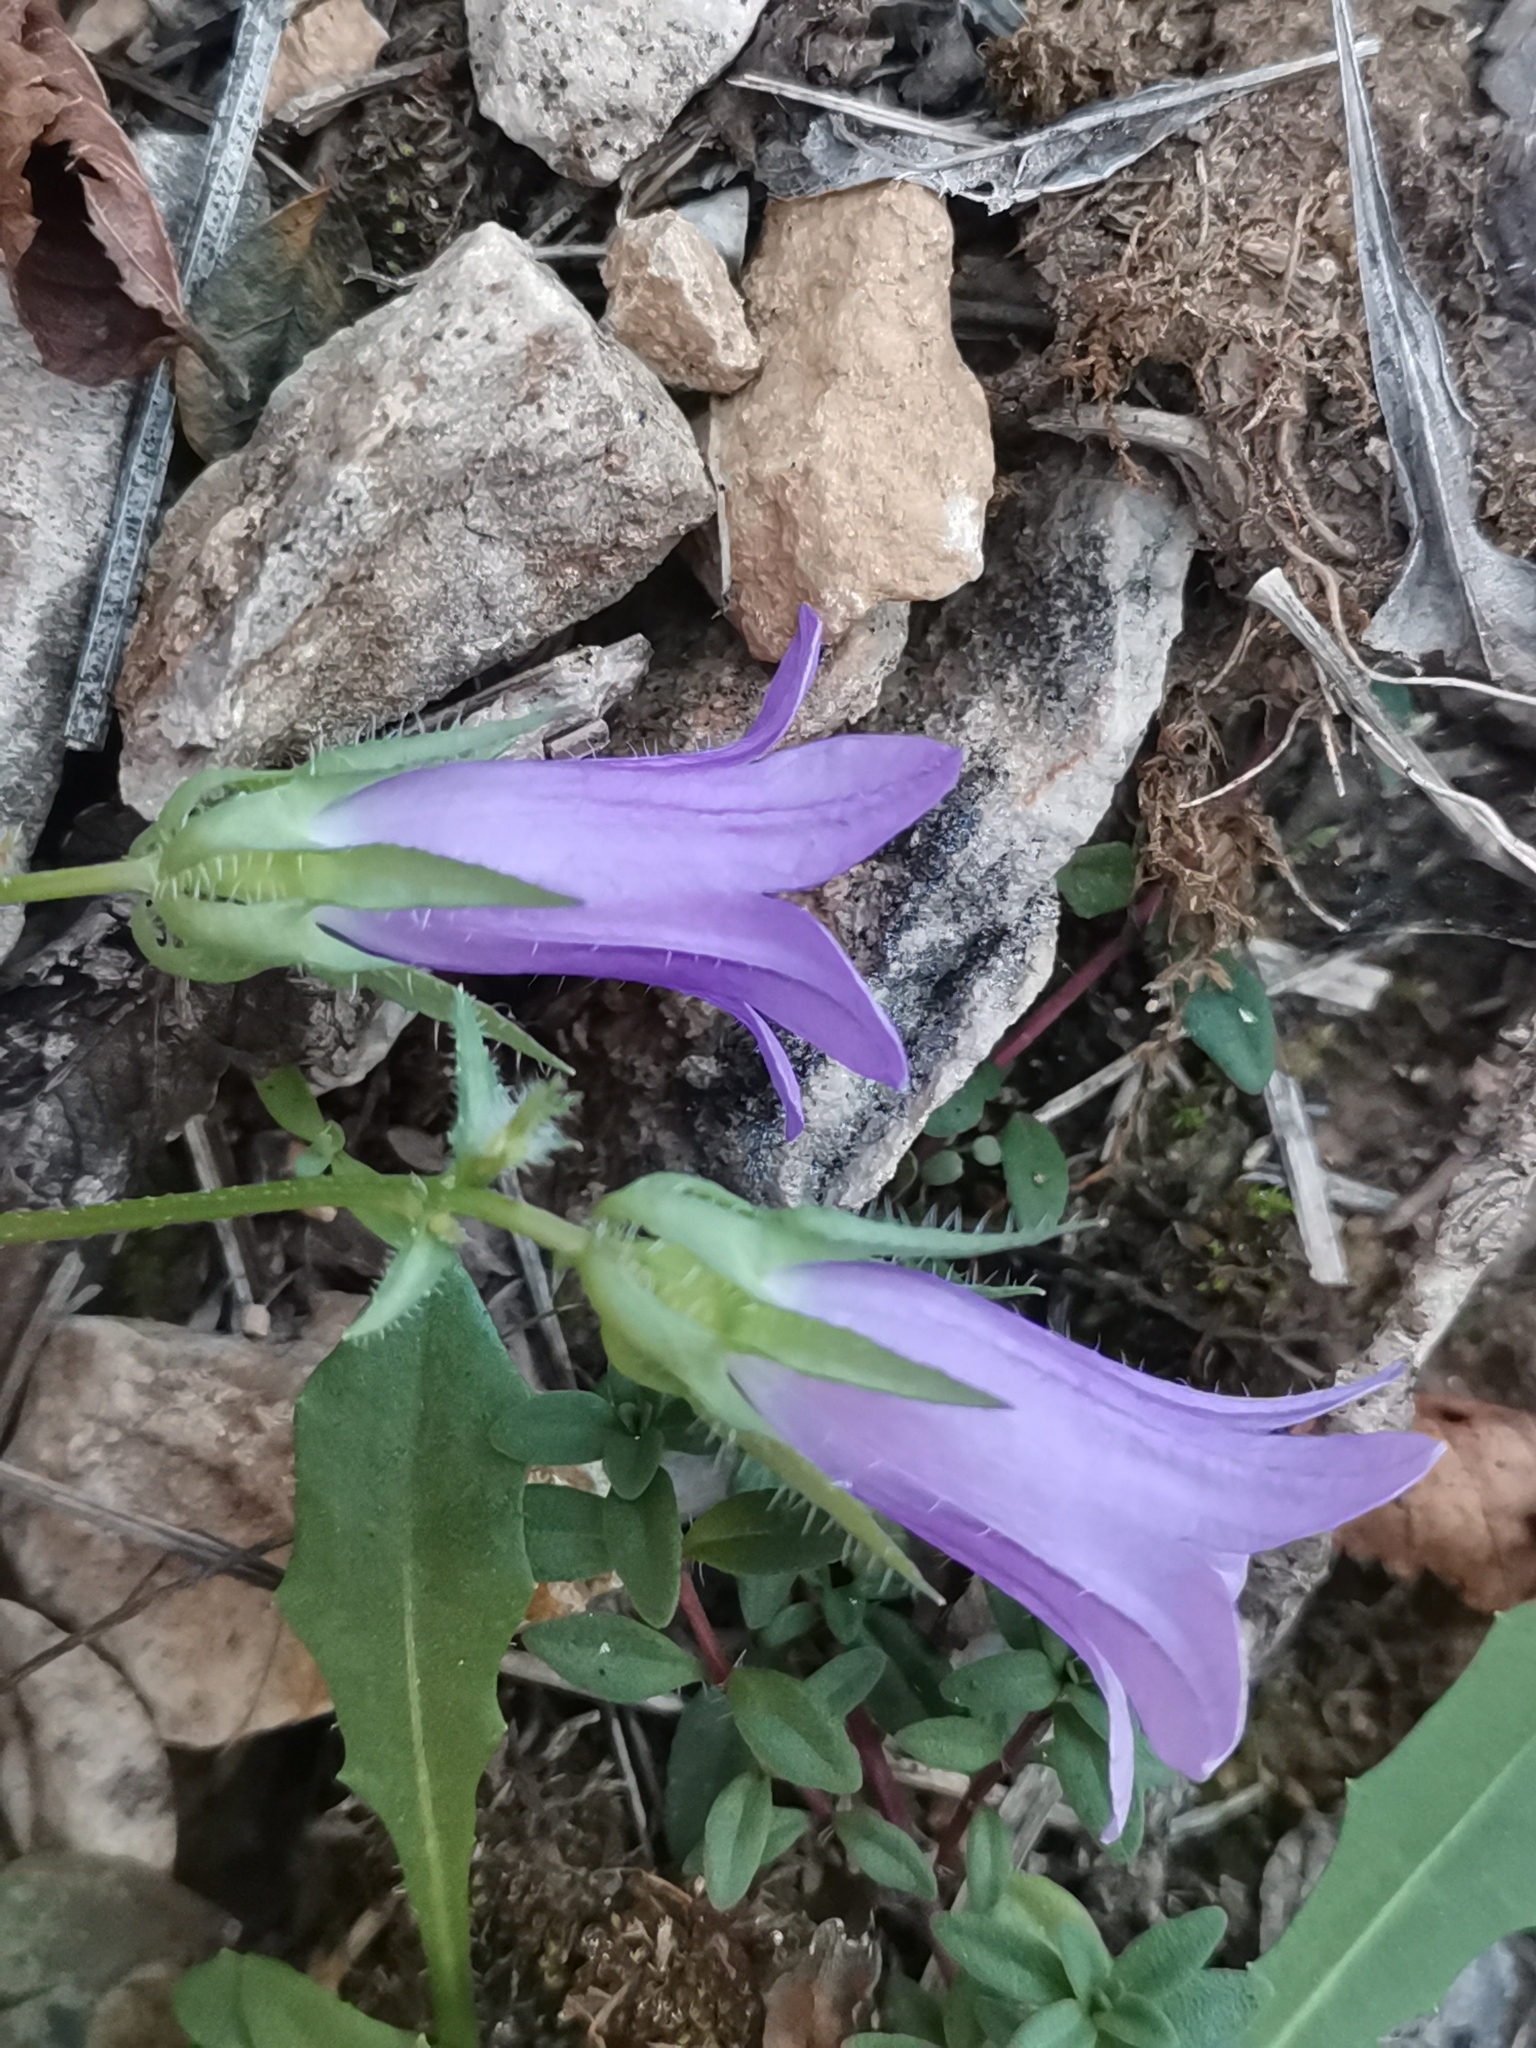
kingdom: Plantae
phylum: Tracheophyta
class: Magnoliopsida
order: Asterales
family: Campanulaceae
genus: Campanula
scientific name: Campanula sibirica
